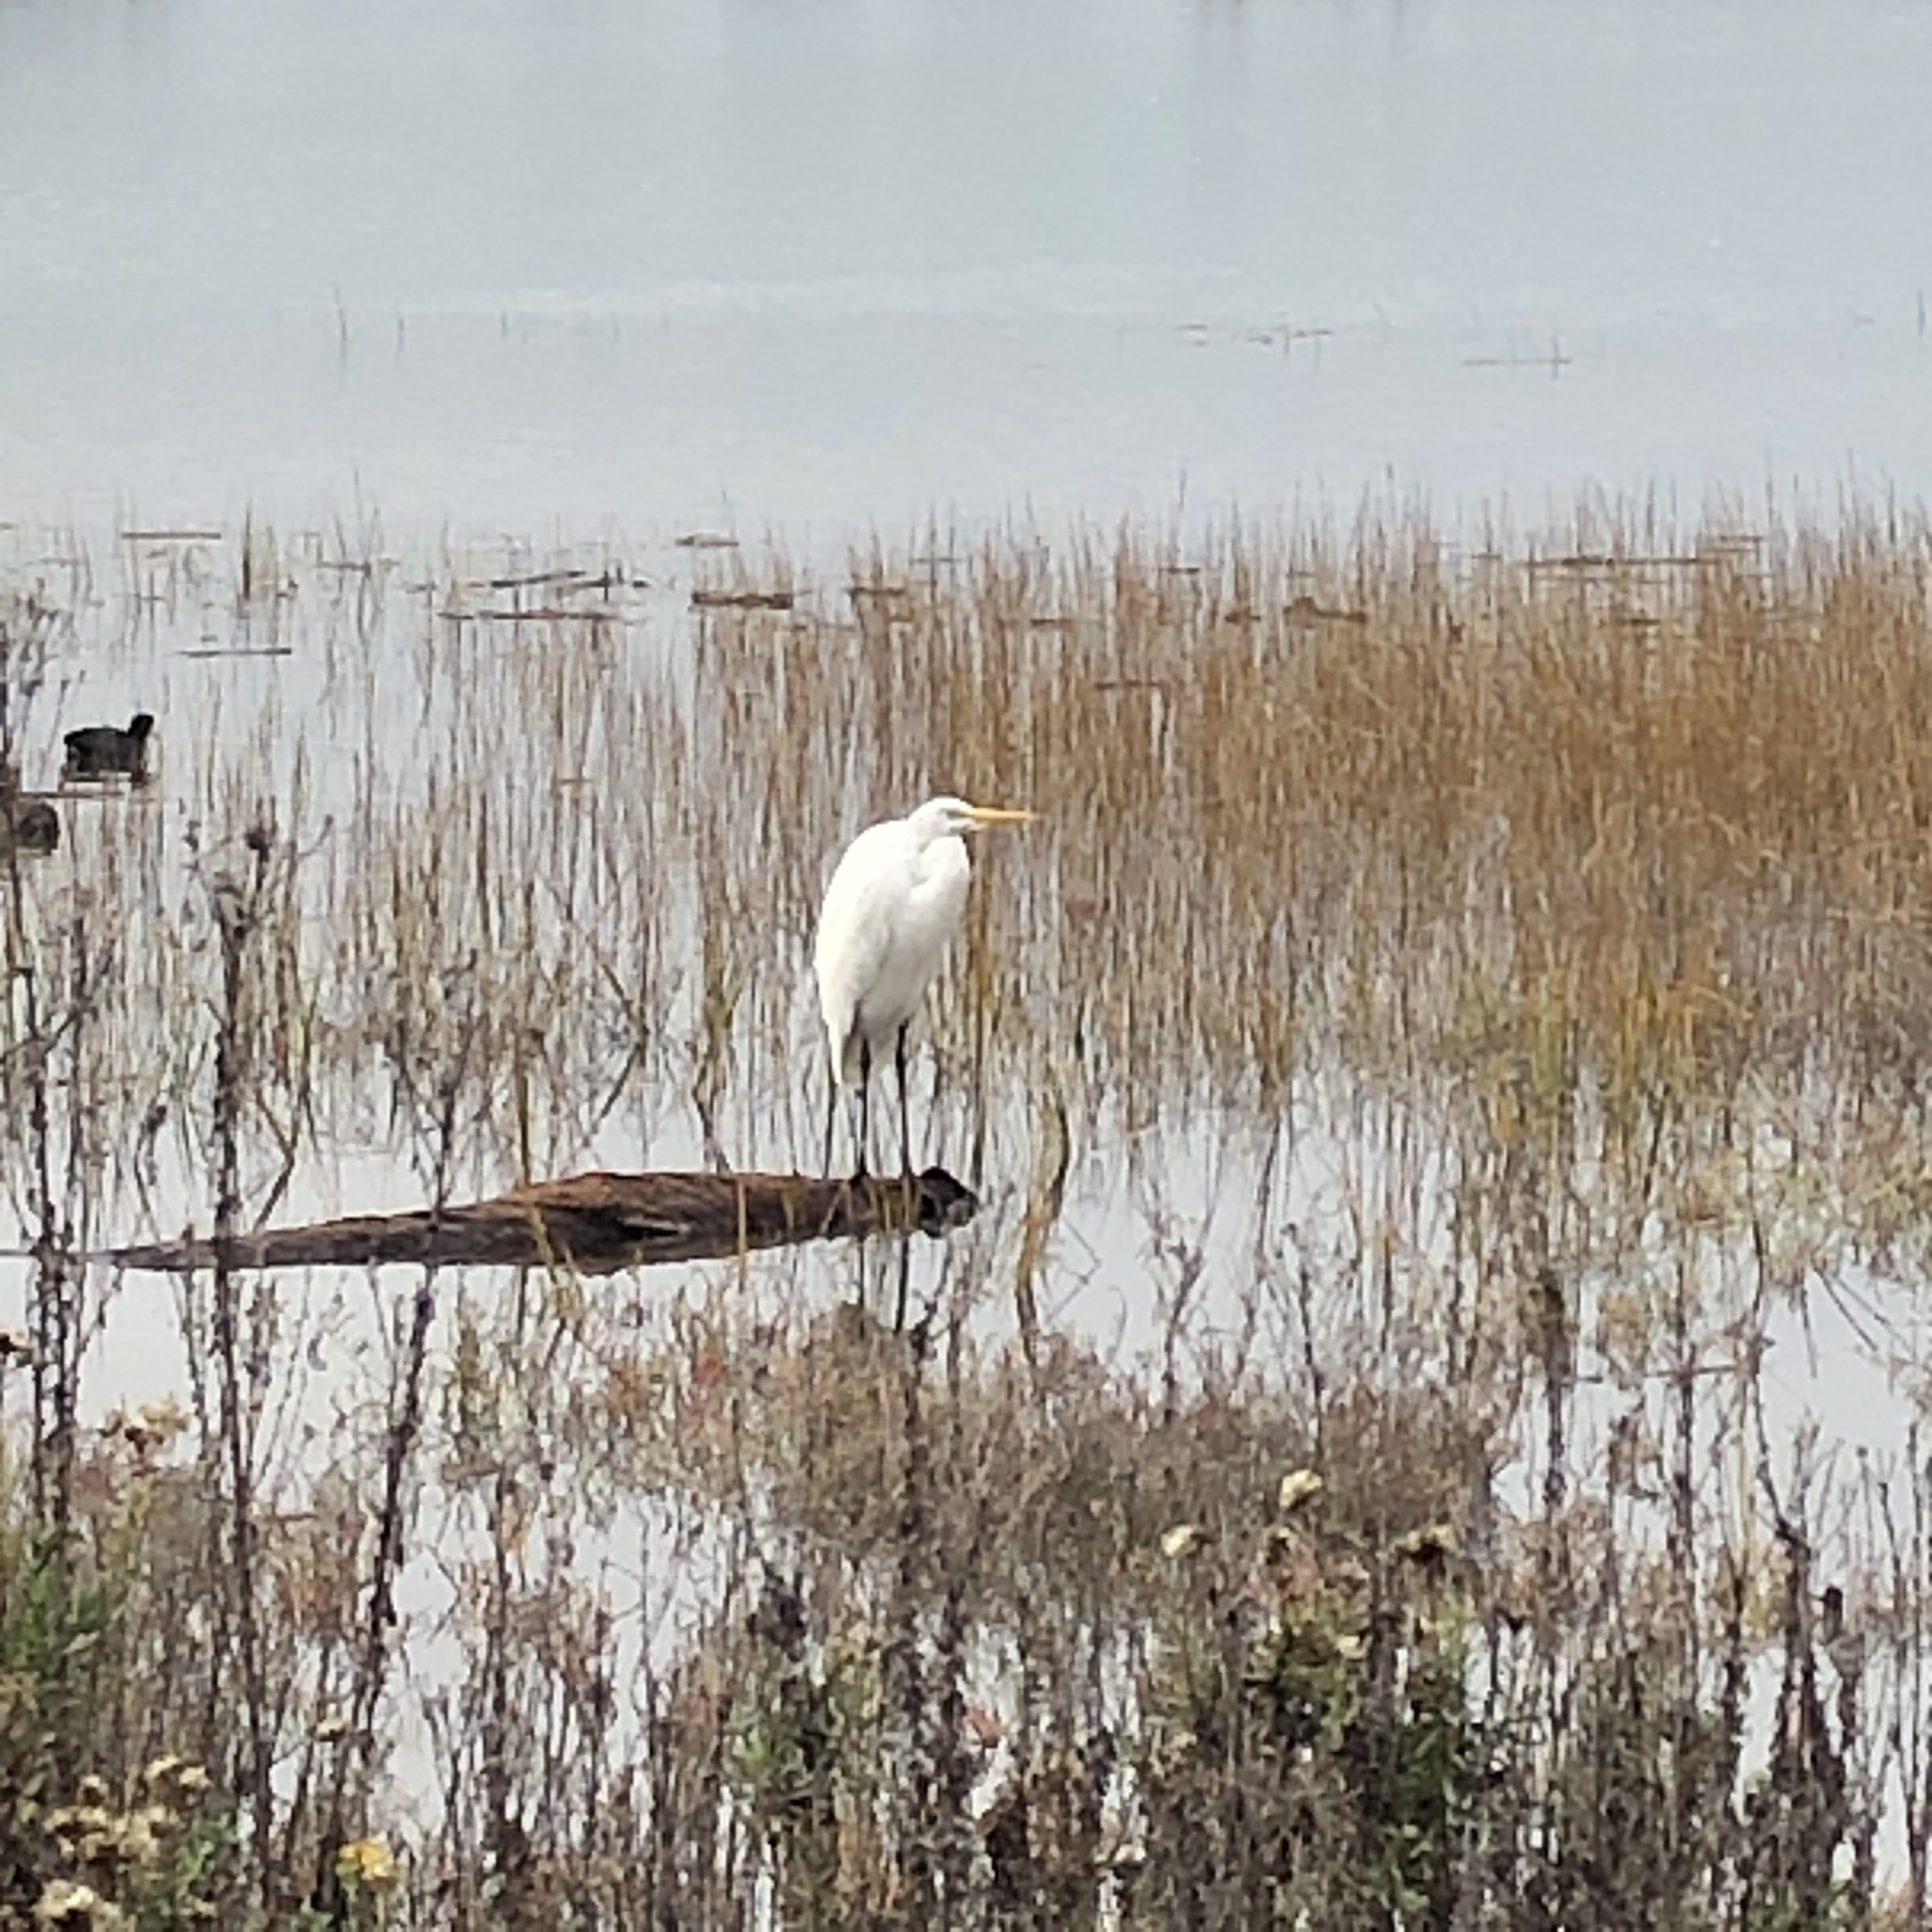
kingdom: Animalia
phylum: Chordata
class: Aves
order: Pelecaniformes
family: Ardeidae
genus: Ardea
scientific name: Ardea alba
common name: Great egret
